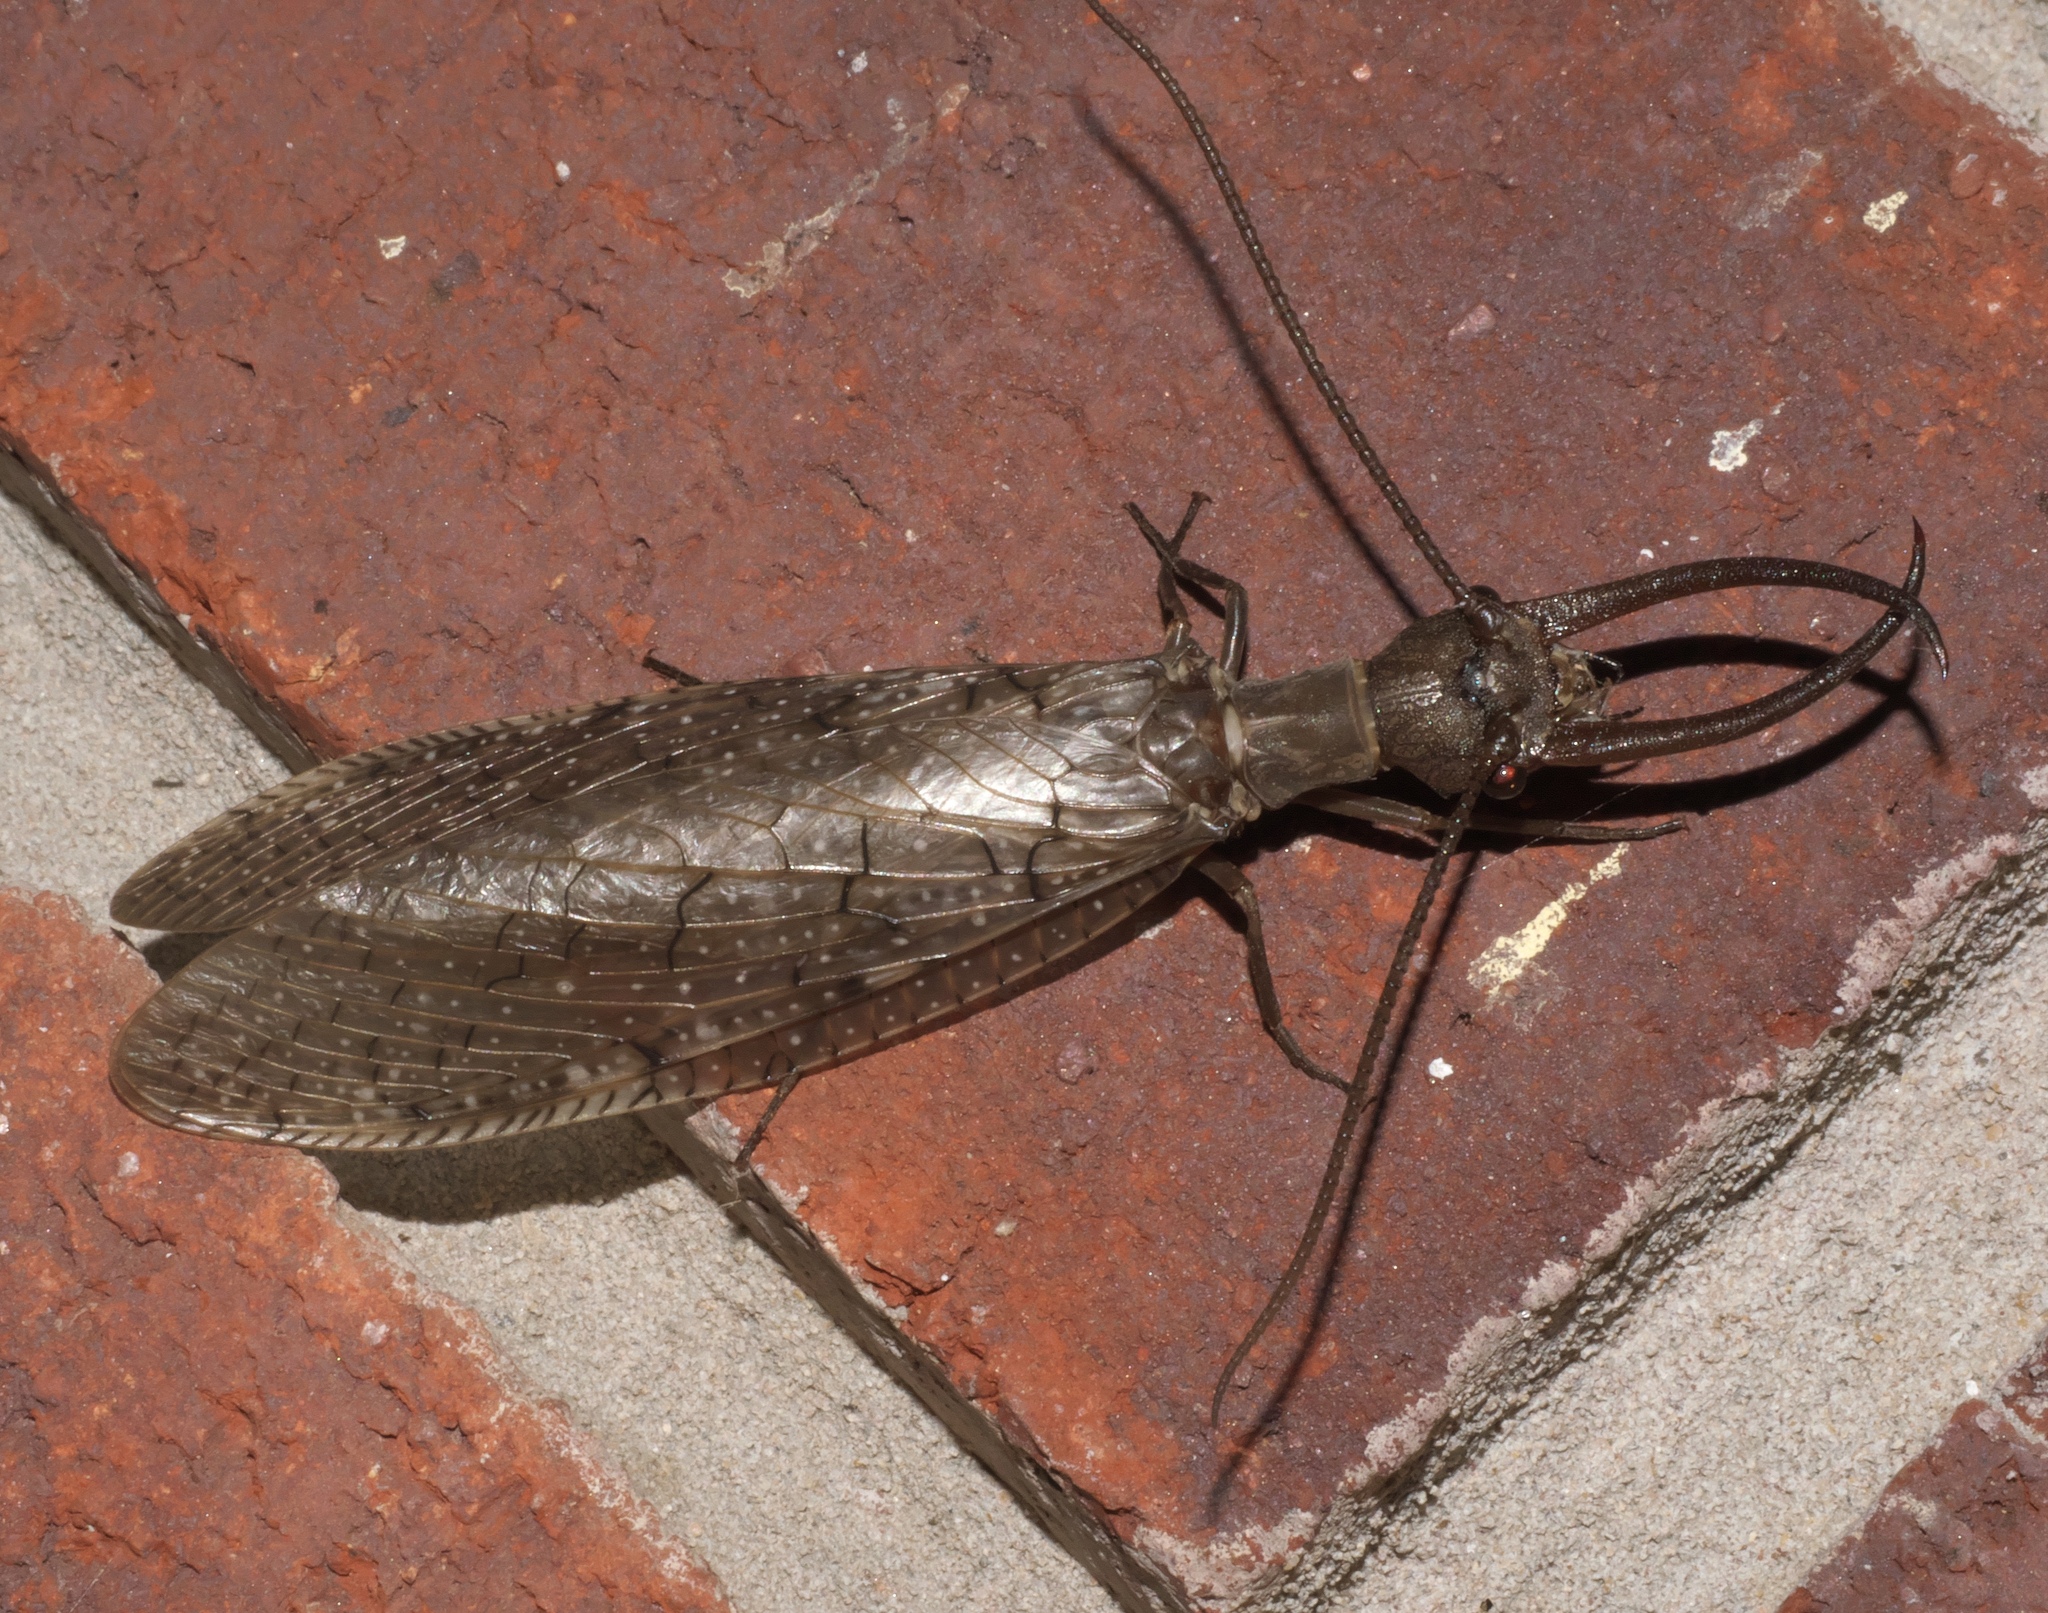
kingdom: Animalia
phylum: Arthropoda
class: Insecta
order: Megaloptera
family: Corydalidae
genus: Corydalus
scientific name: Corydalus cornutus
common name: Dobsonfly
